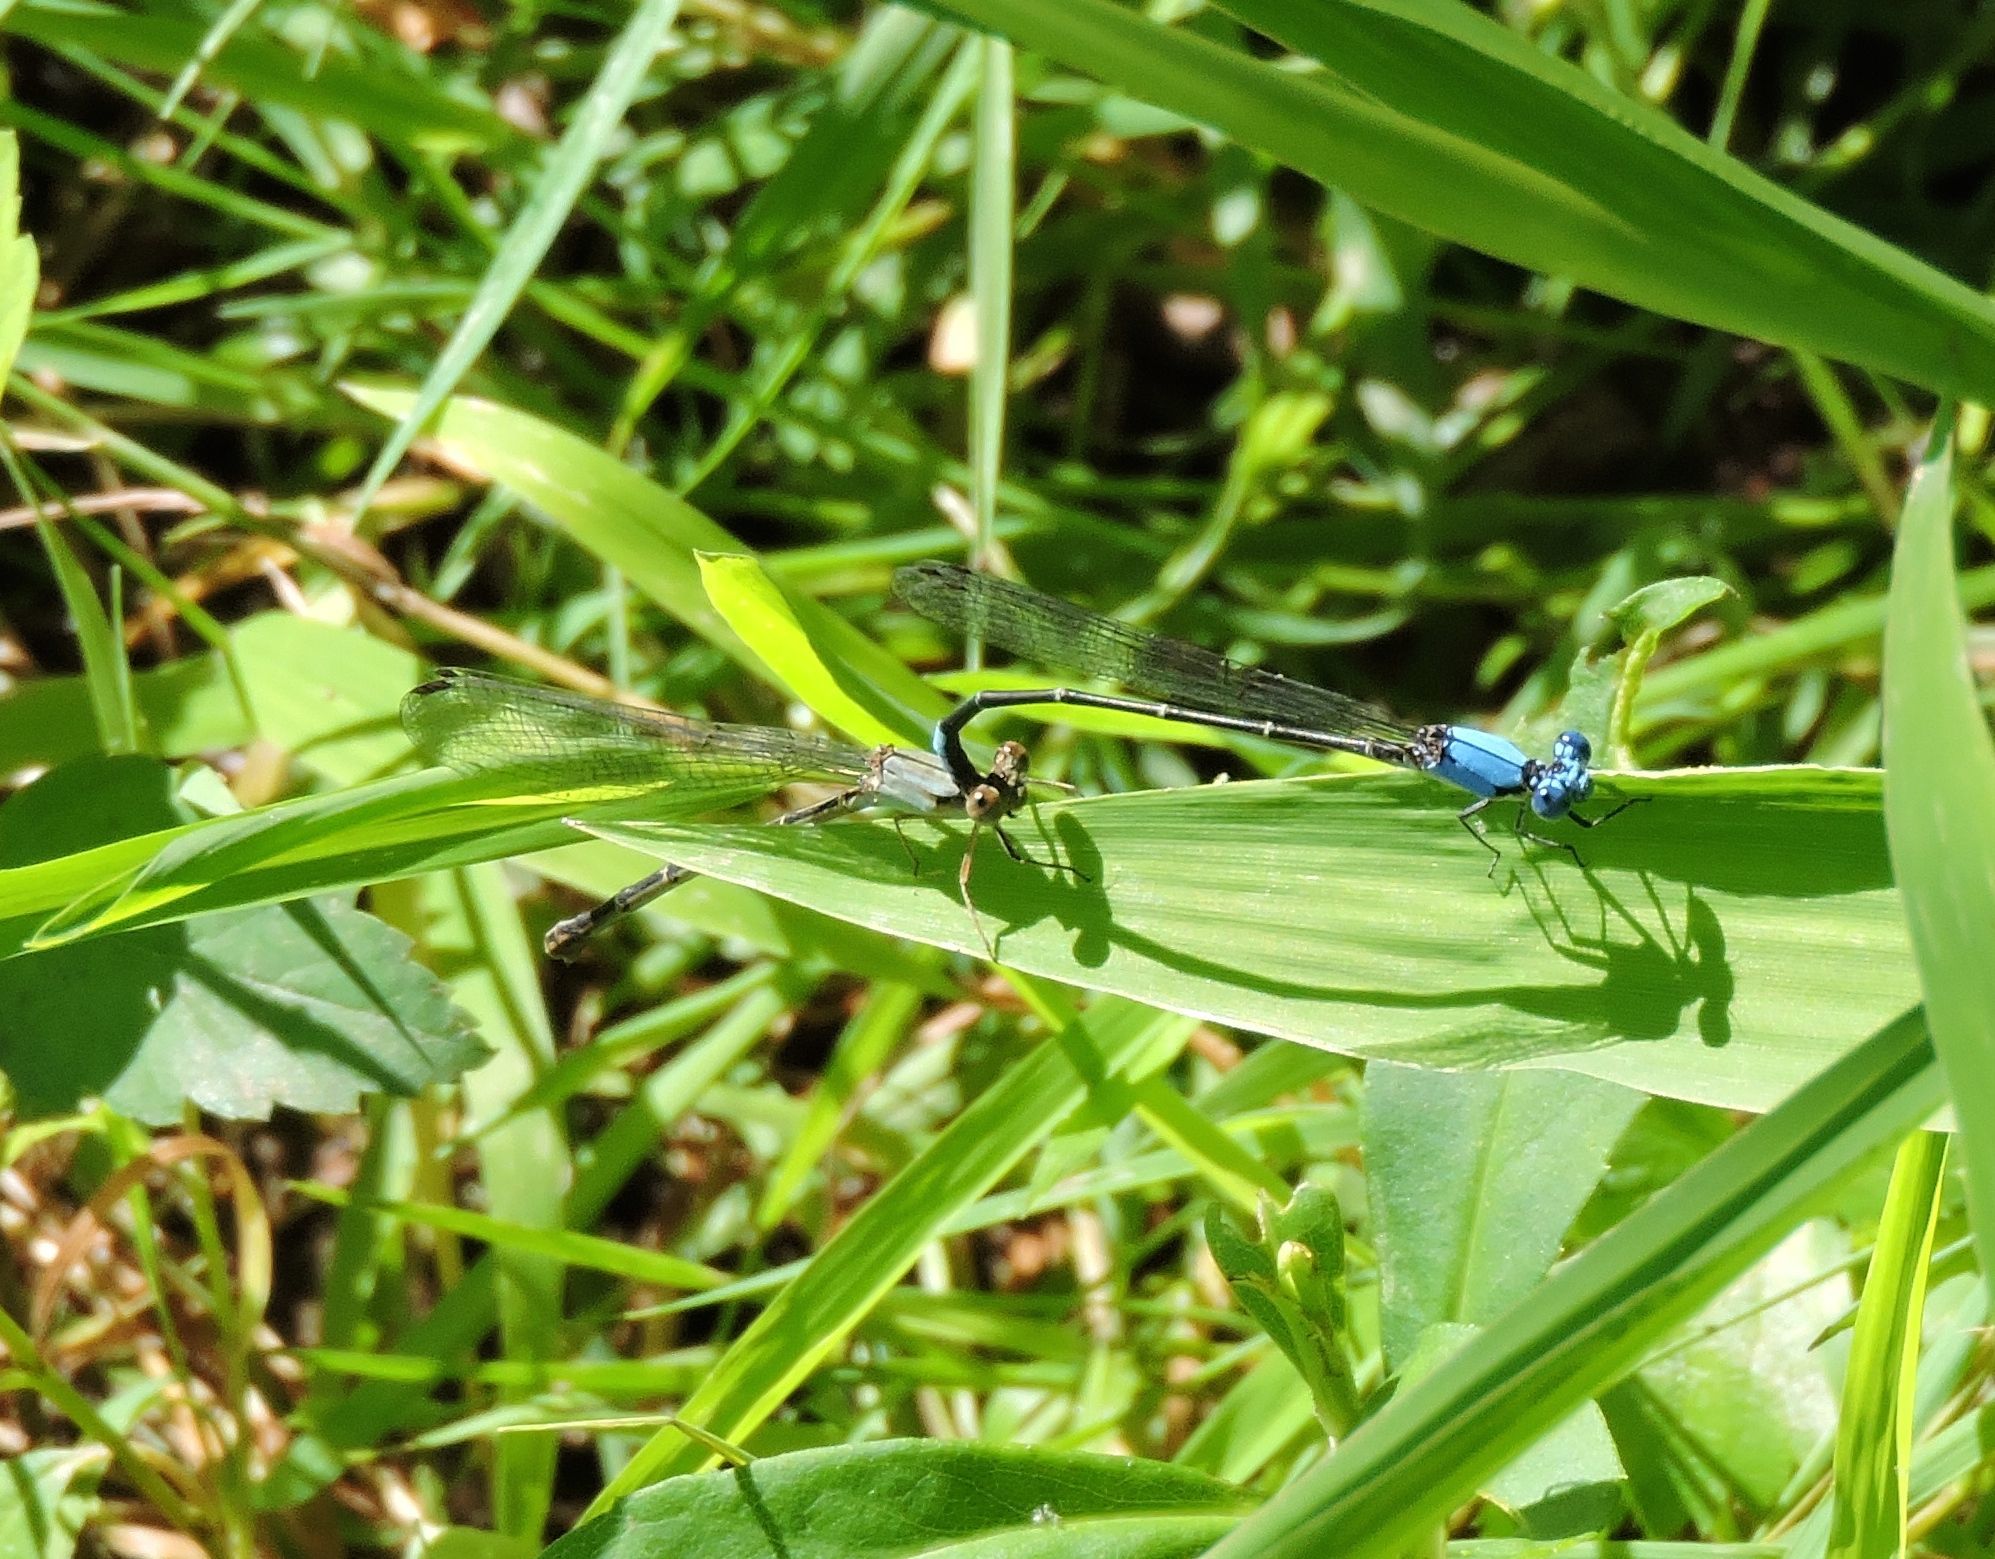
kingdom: Animalia
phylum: Arthropoda
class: Insecta
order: Odonata
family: Coenagrionidae
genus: Argia
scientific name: Argia apicalis
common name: Blue-fronted dancer
